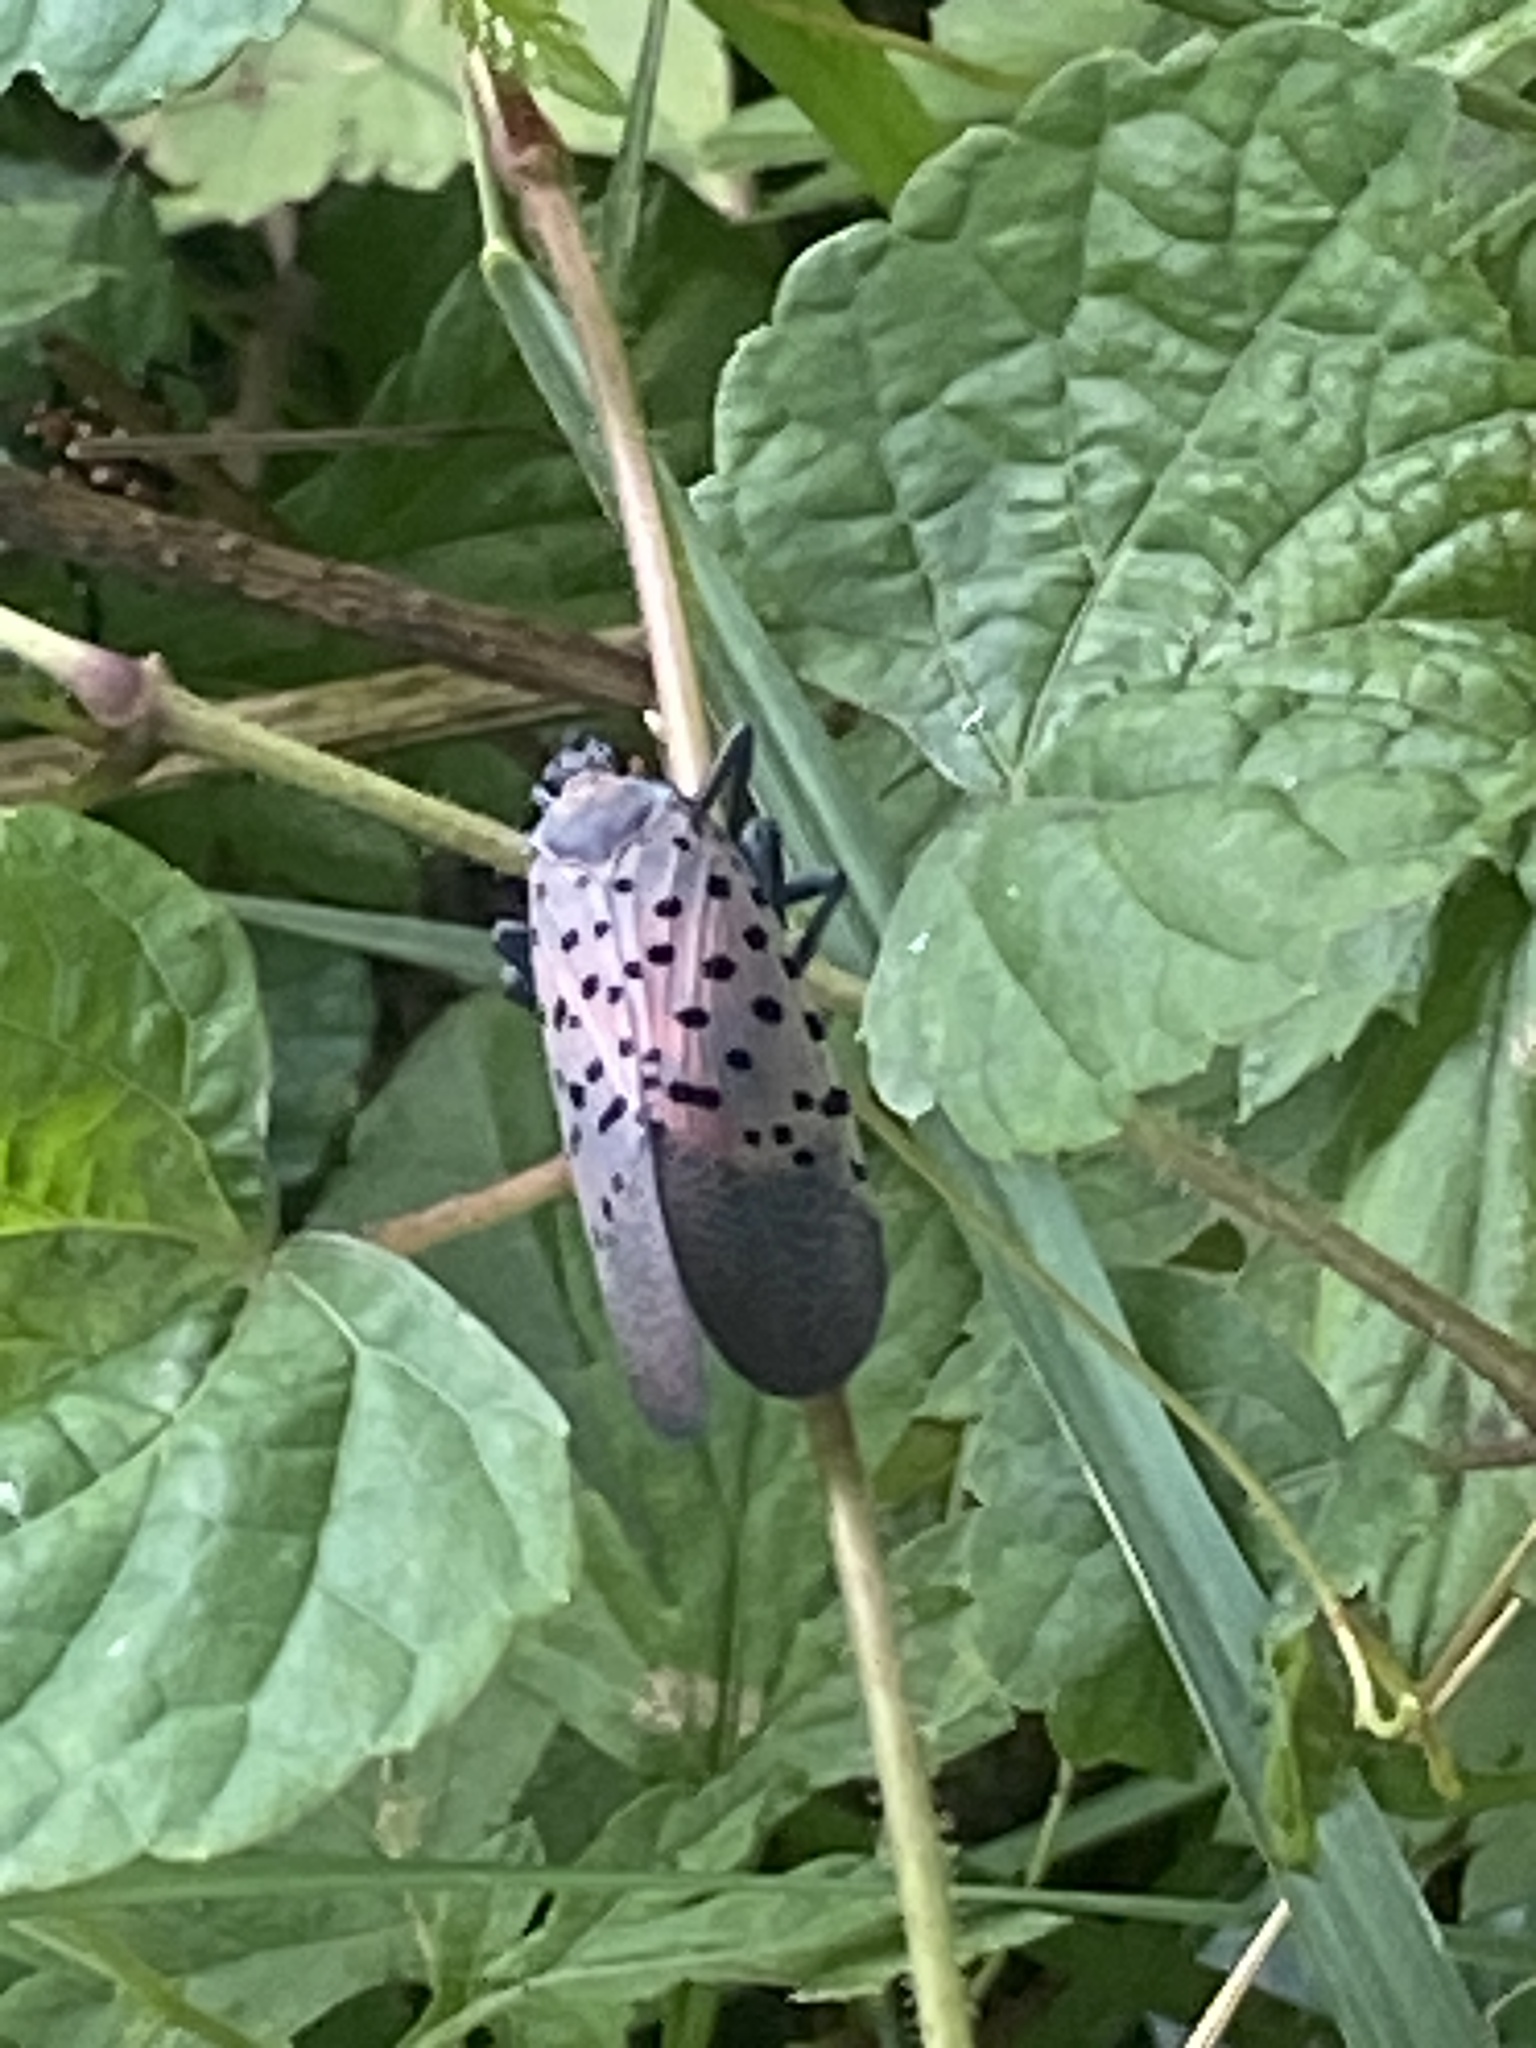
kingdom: Animalia
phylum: Arthropoda
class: Insecta
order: Hemiptera
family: Fulgoridae
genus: Lycorma
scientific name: Lycorma delicatula
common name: Spotted lanternfly
